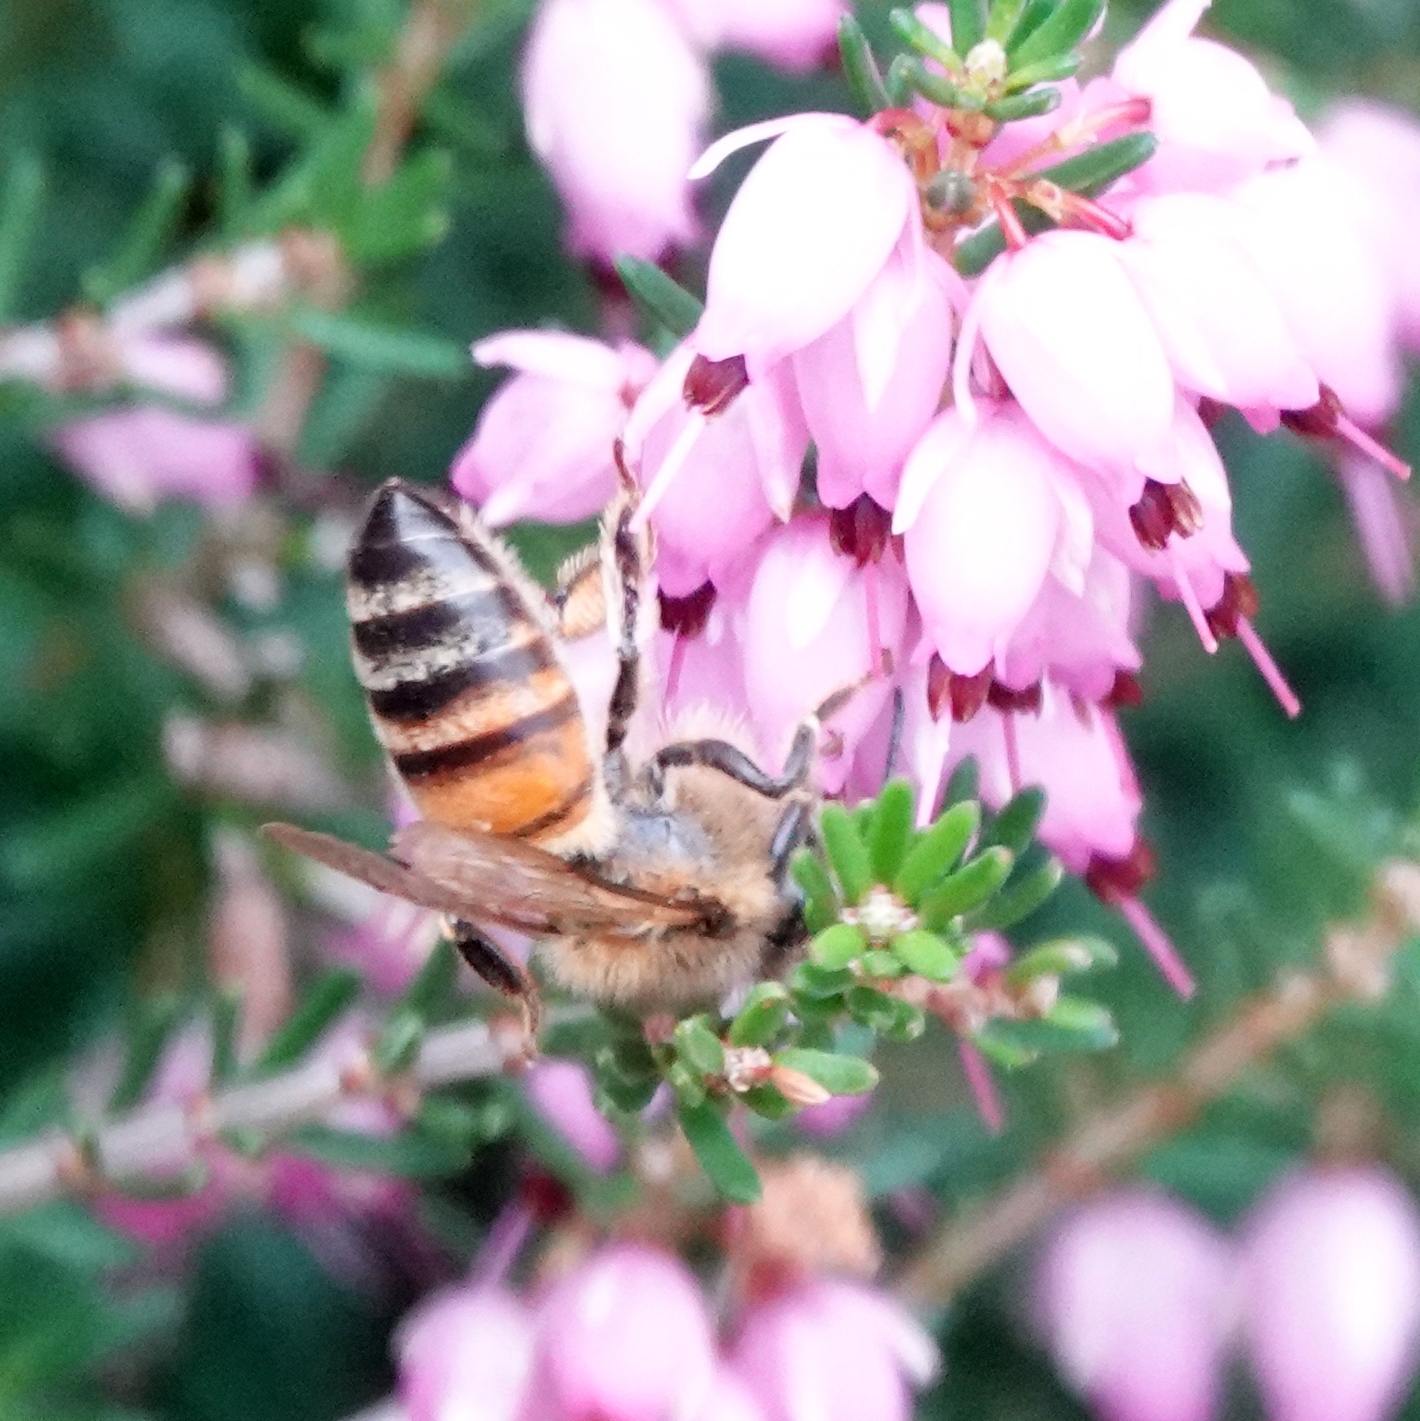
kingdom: Animalia
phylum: Arthropoda
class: Insecta
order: Hymenoptera
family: Apidae
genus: Apis
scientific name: Apis mellifera
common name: Honey bee
